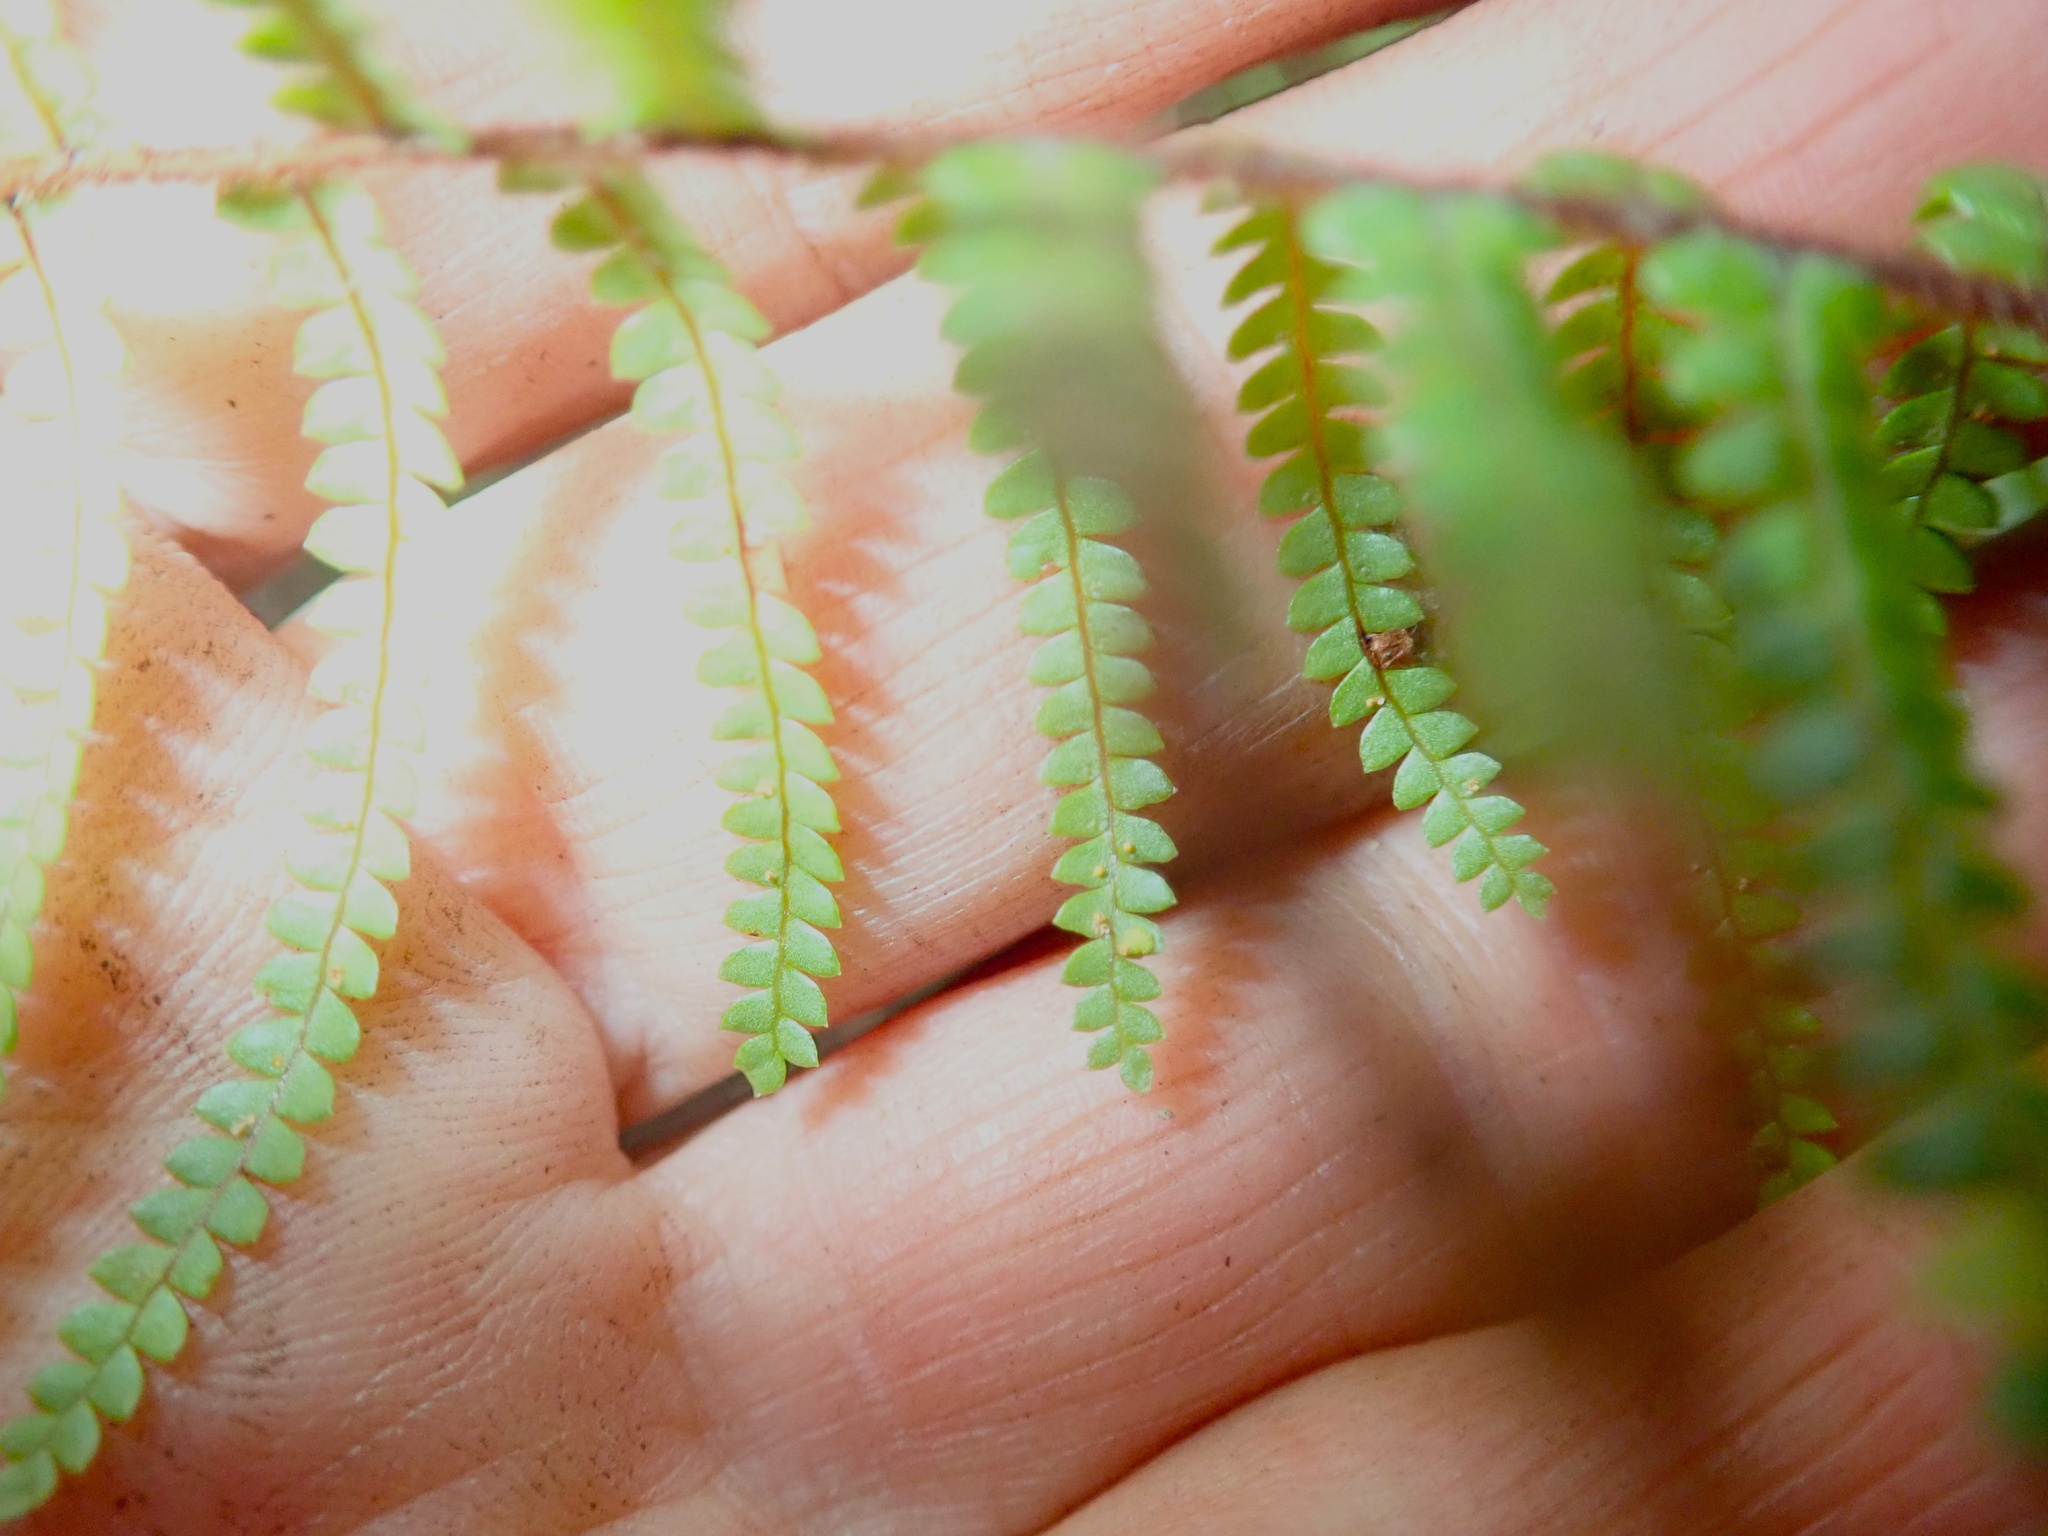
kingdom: Plantae
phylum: Tracheophyta
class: Polypodiopsida
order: Gleicheniales
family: Gleicheniaceae
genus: Gleichenia
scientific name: Gleichenia microphylla
